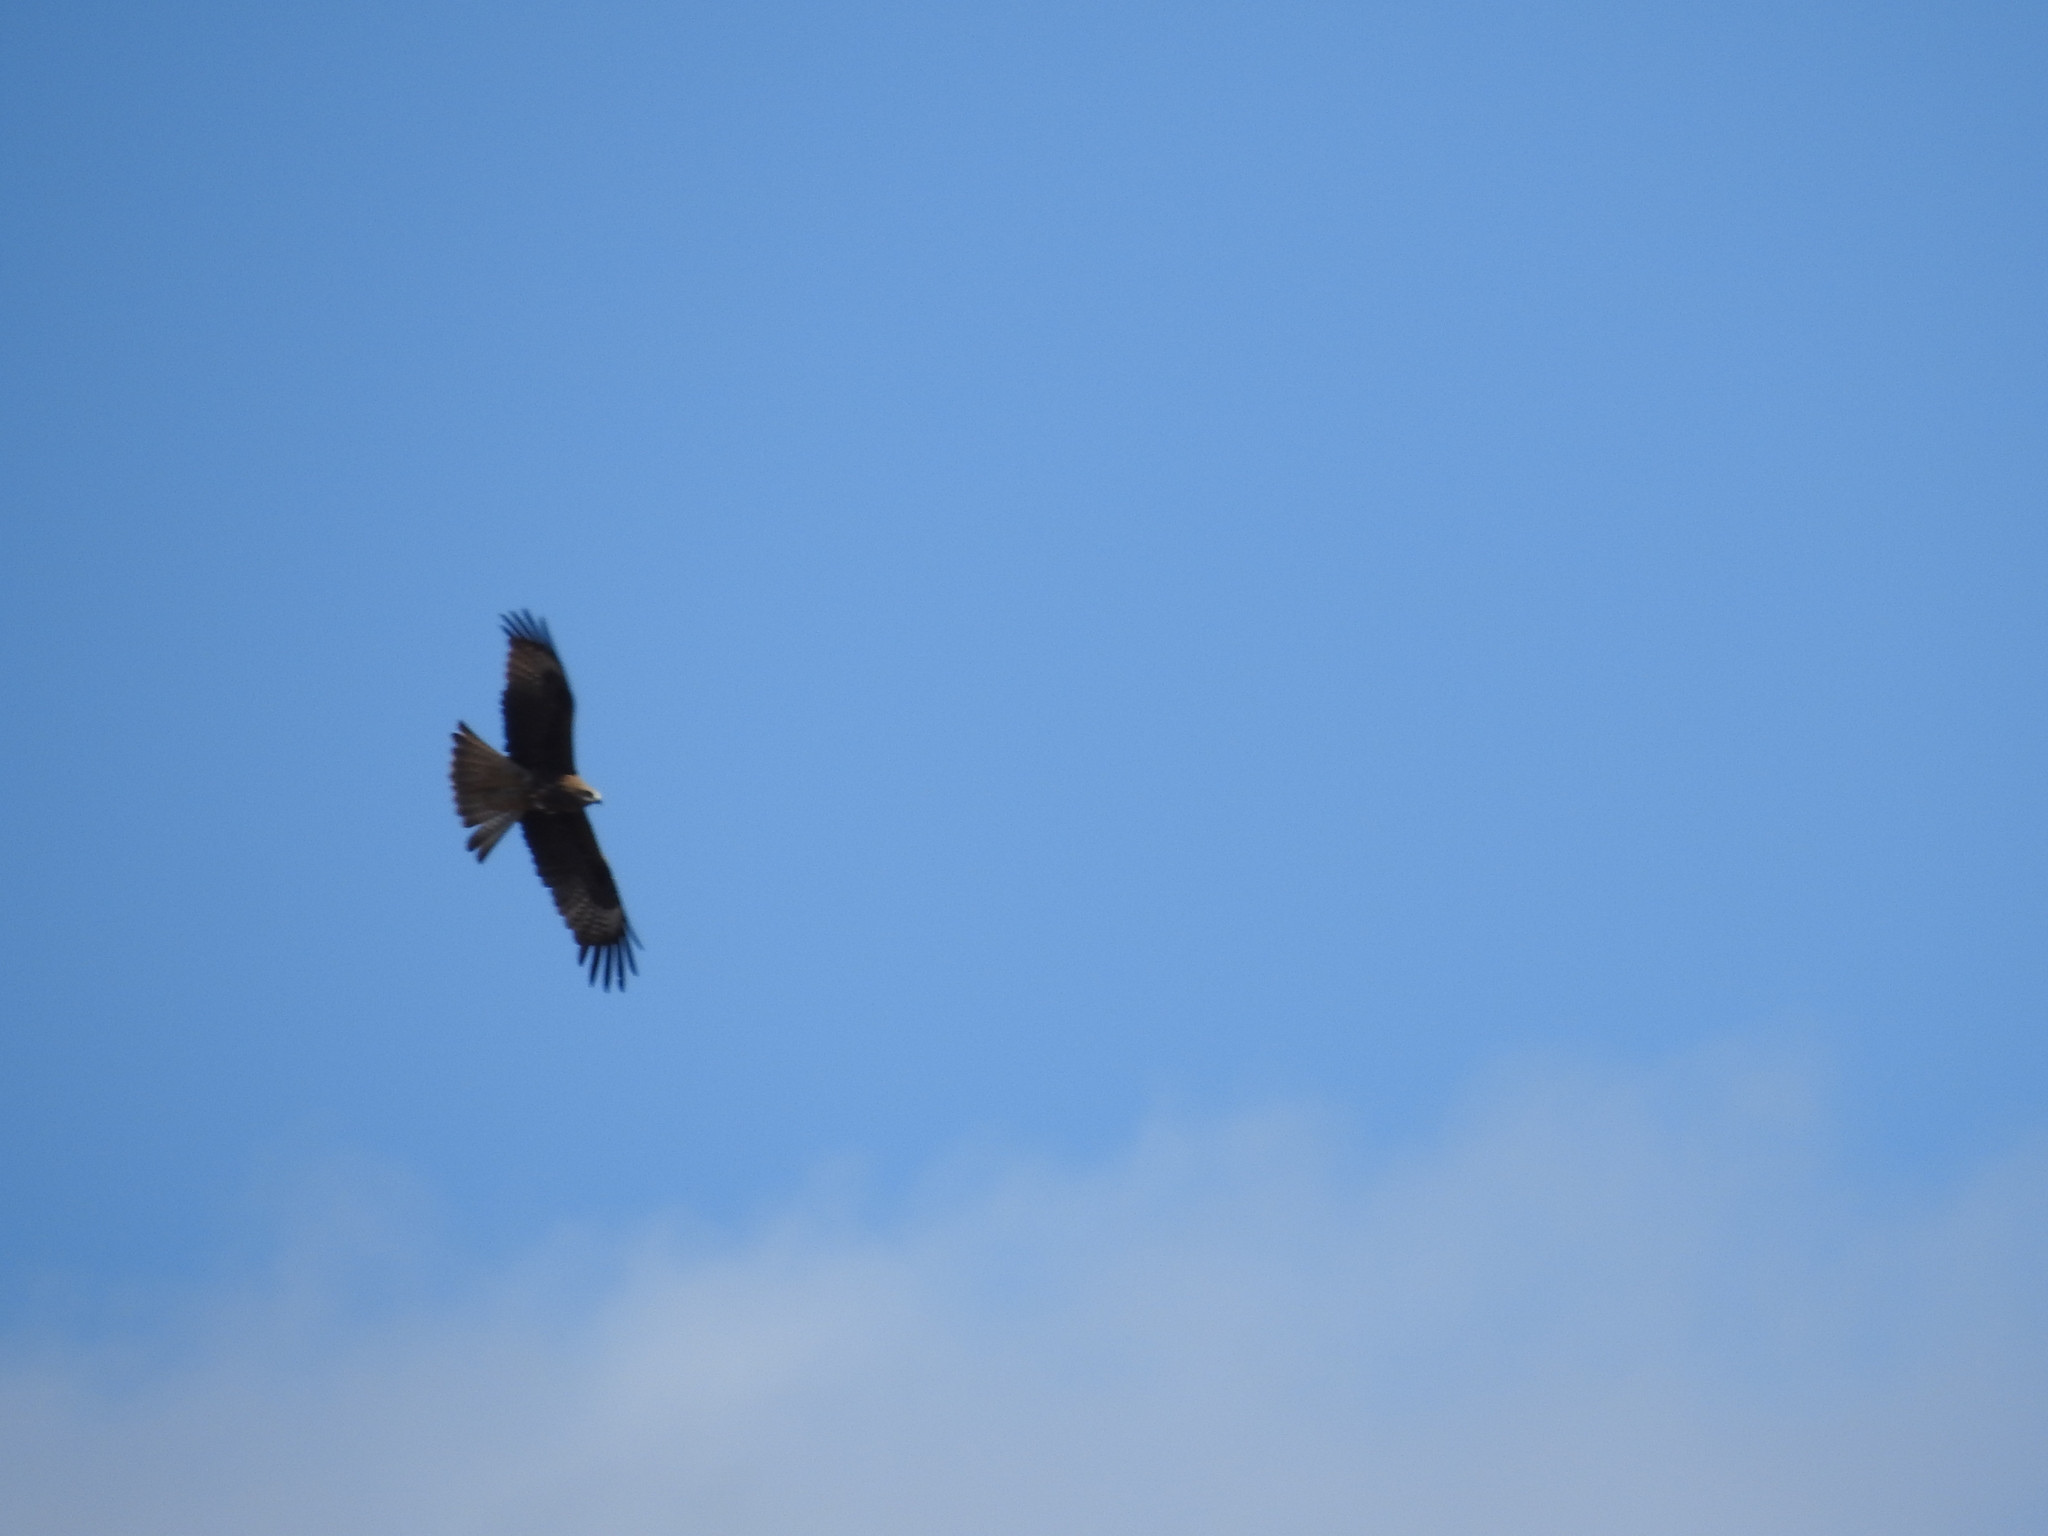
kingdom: Animalia
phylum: Chordata
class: Aves
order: Accipitriformes
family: Accipitridae
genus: Milvus
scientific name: Milvus migrans
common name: Black kite
